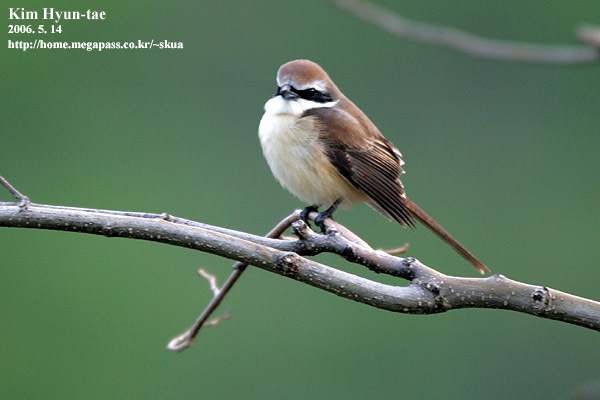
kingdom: Animalia
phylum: Chordata
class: Aves
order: Passeriformes
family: Laniidae
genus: Lanius
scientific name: Lanius cristatus
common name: Brown shrike
